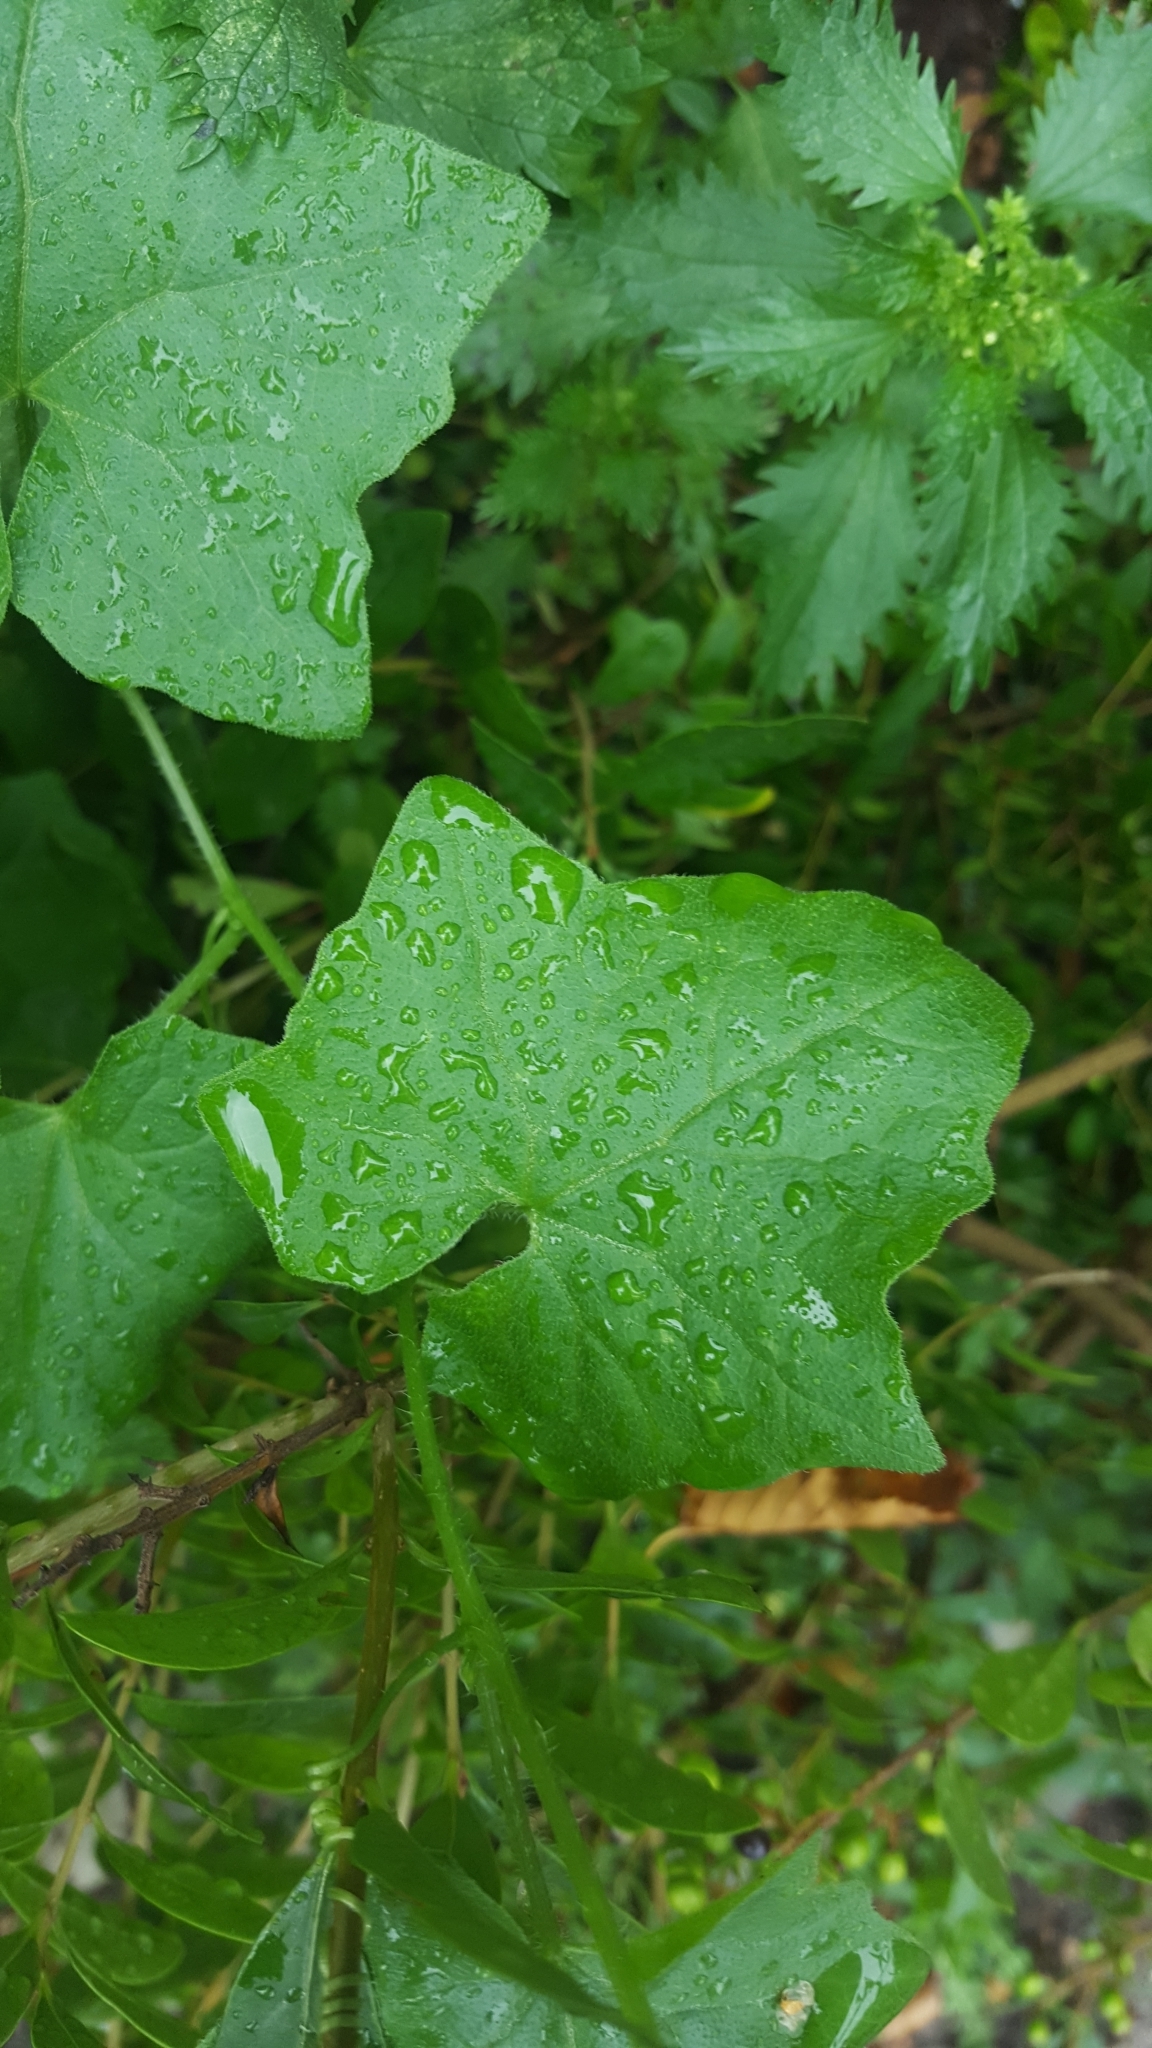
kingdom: Plantae
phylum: Tracheophyta
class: Magnoliopsida
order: Cucurbitales
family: Cucurbitaceae
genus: Bryonia
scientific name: Bryonia cretica
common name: Cretan bryony
